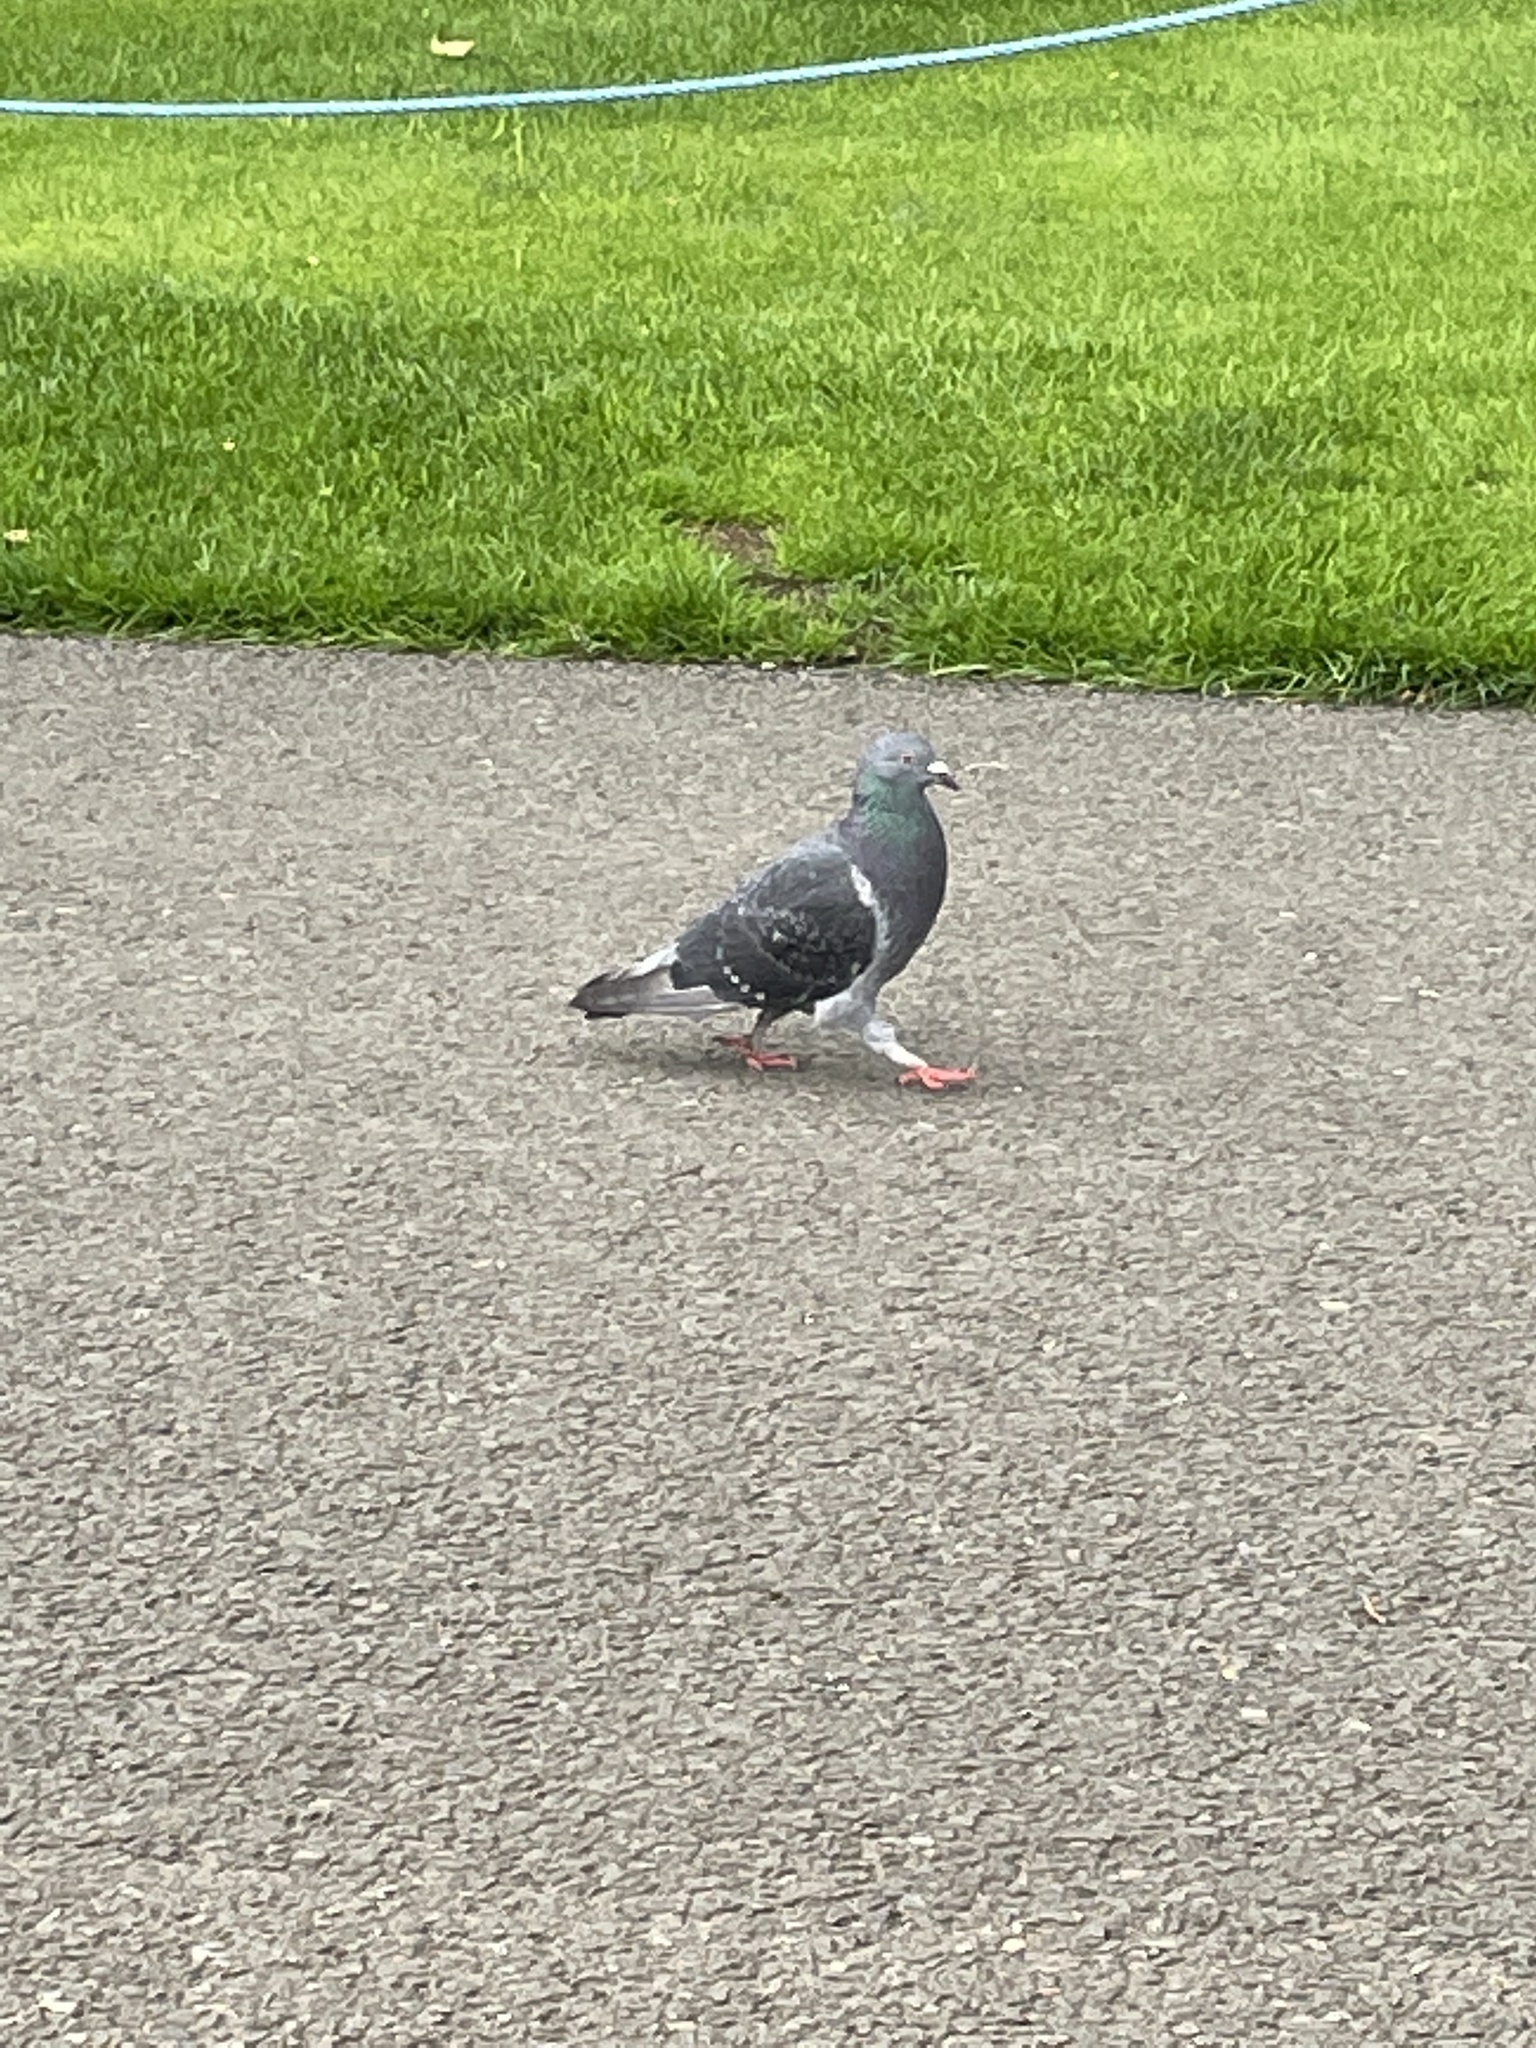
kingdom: Animalia
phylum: Chordata
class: Aves
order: Columbiformes
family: Columbidae
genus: Columba
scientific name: Columba livia
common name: Rock pigeon
